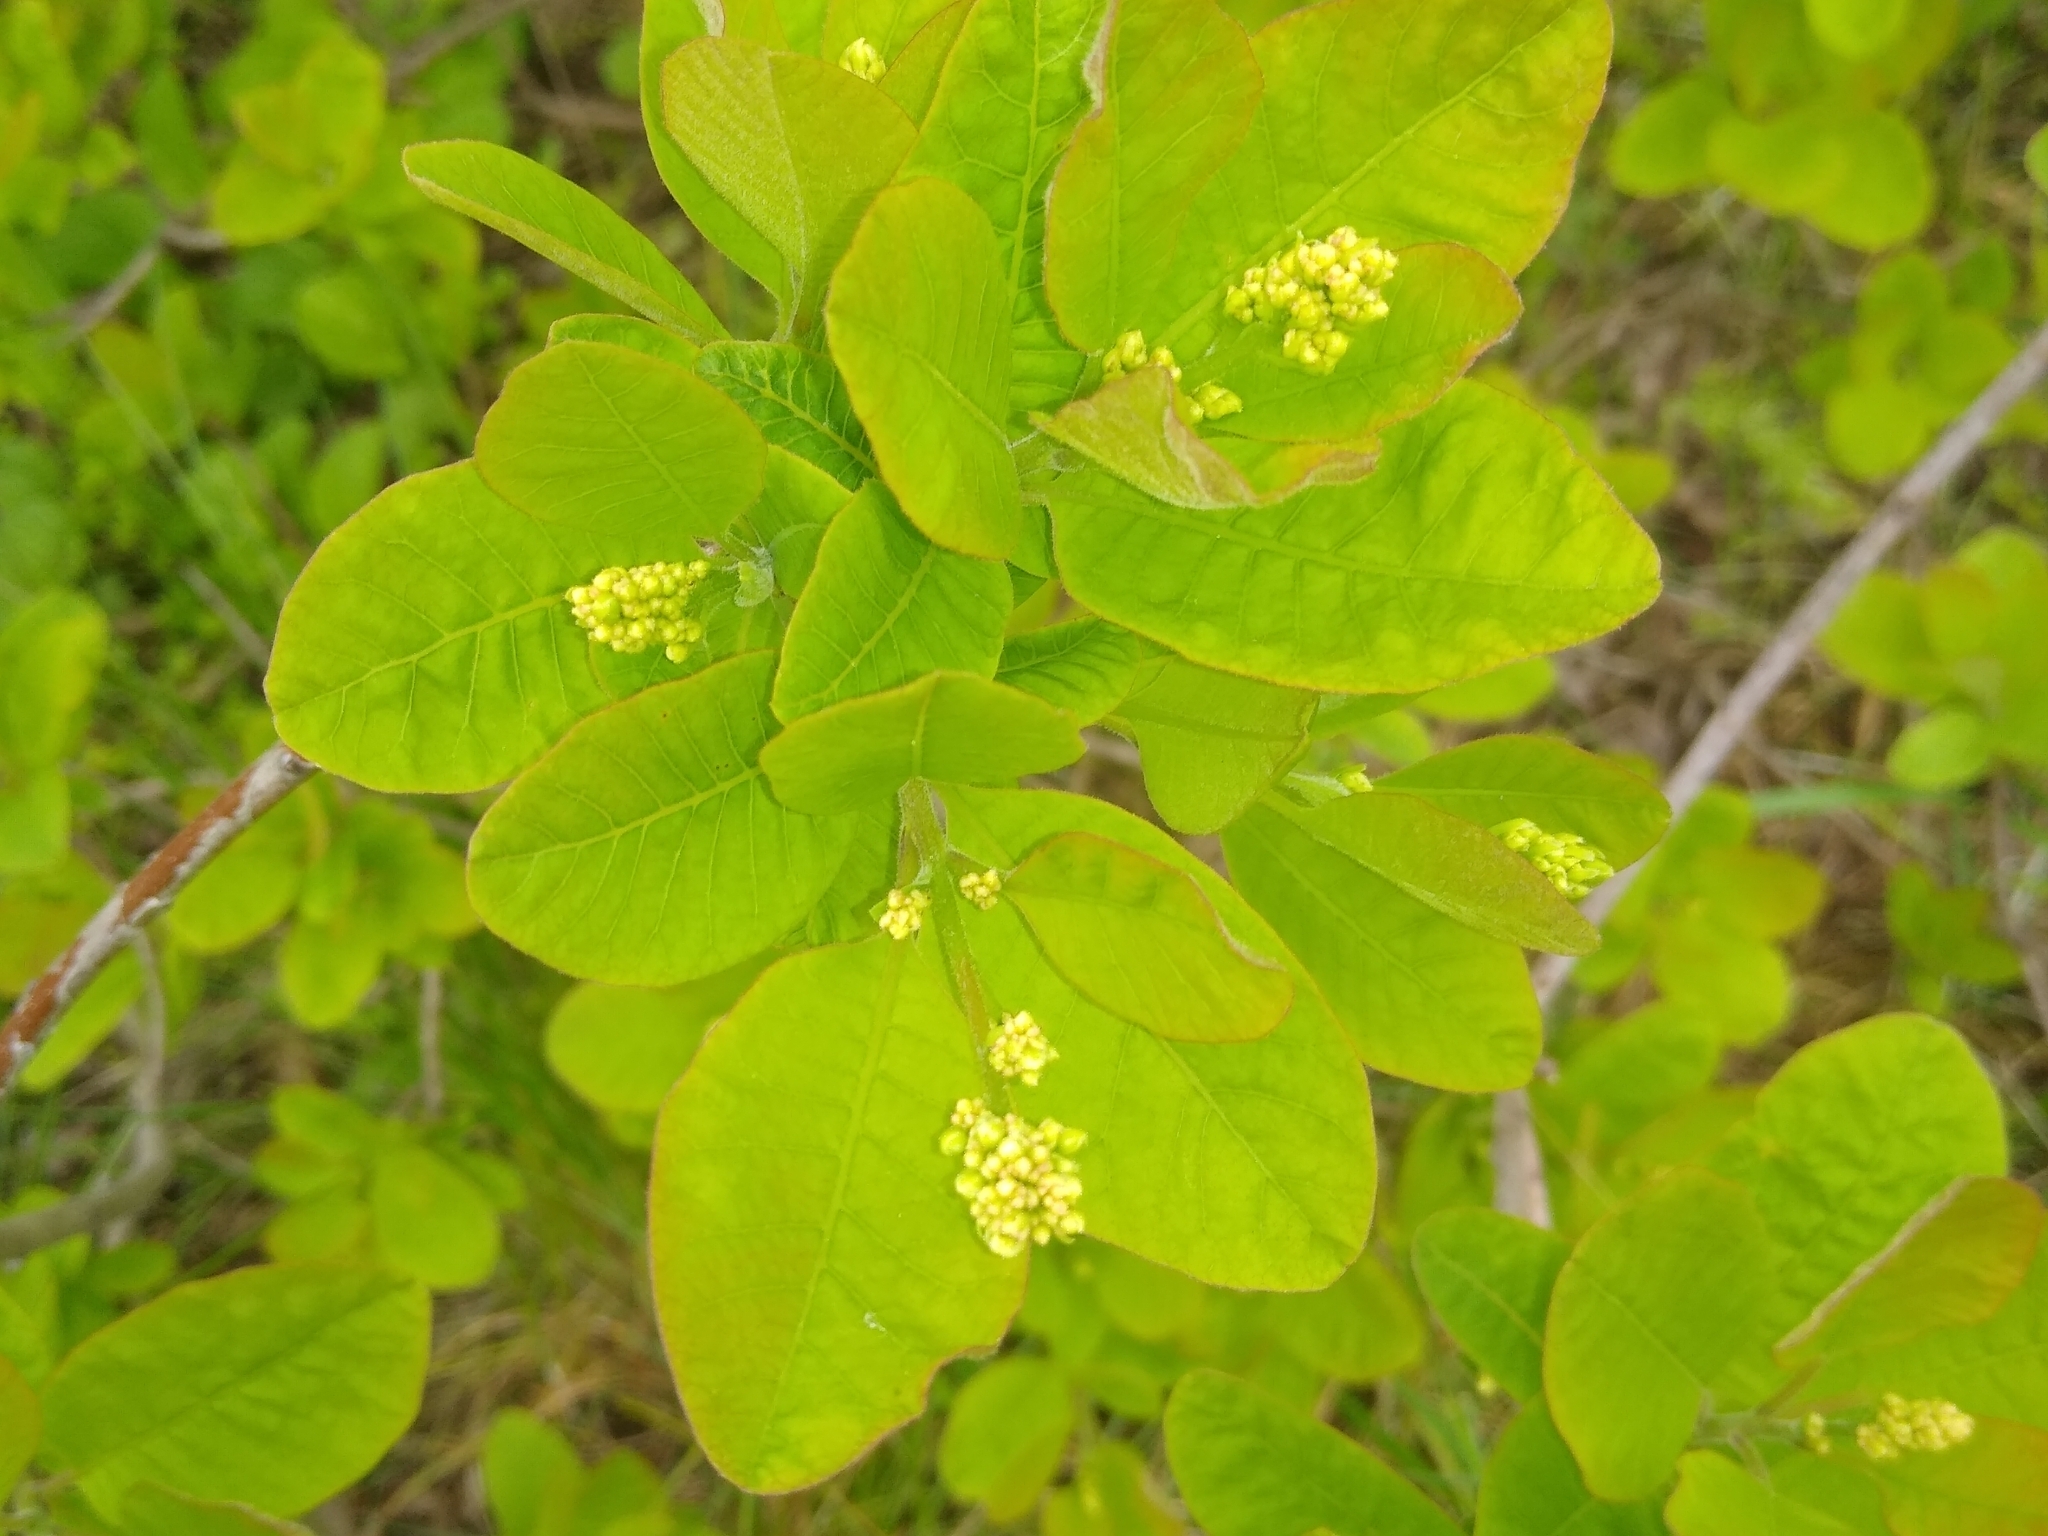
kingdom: Plantae
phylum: Tracheophyta
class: Magnoliopsida
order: Sapindales
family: Anacardiaceae
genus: Cotinus
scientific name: Cotinus coggygria
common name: Smoke-tree
